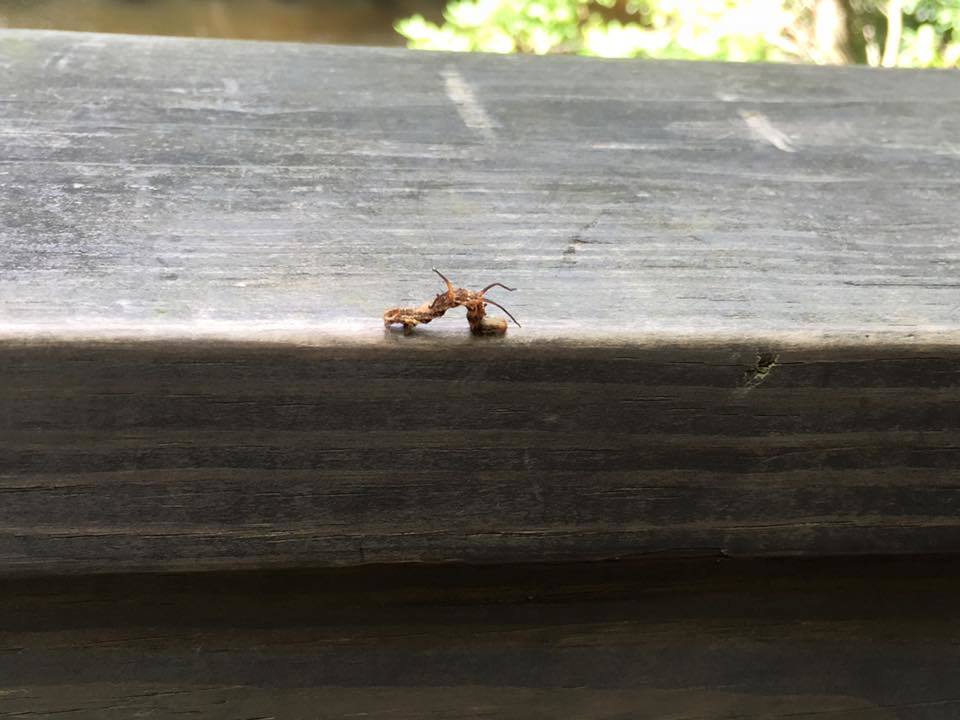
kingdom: Animalia
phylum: Arthropoda
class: Insecta
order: Lepidoptera
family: Geometridae
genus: Nematocampa
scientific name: Nematocampa resistaria
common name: Horned spanworm moth
